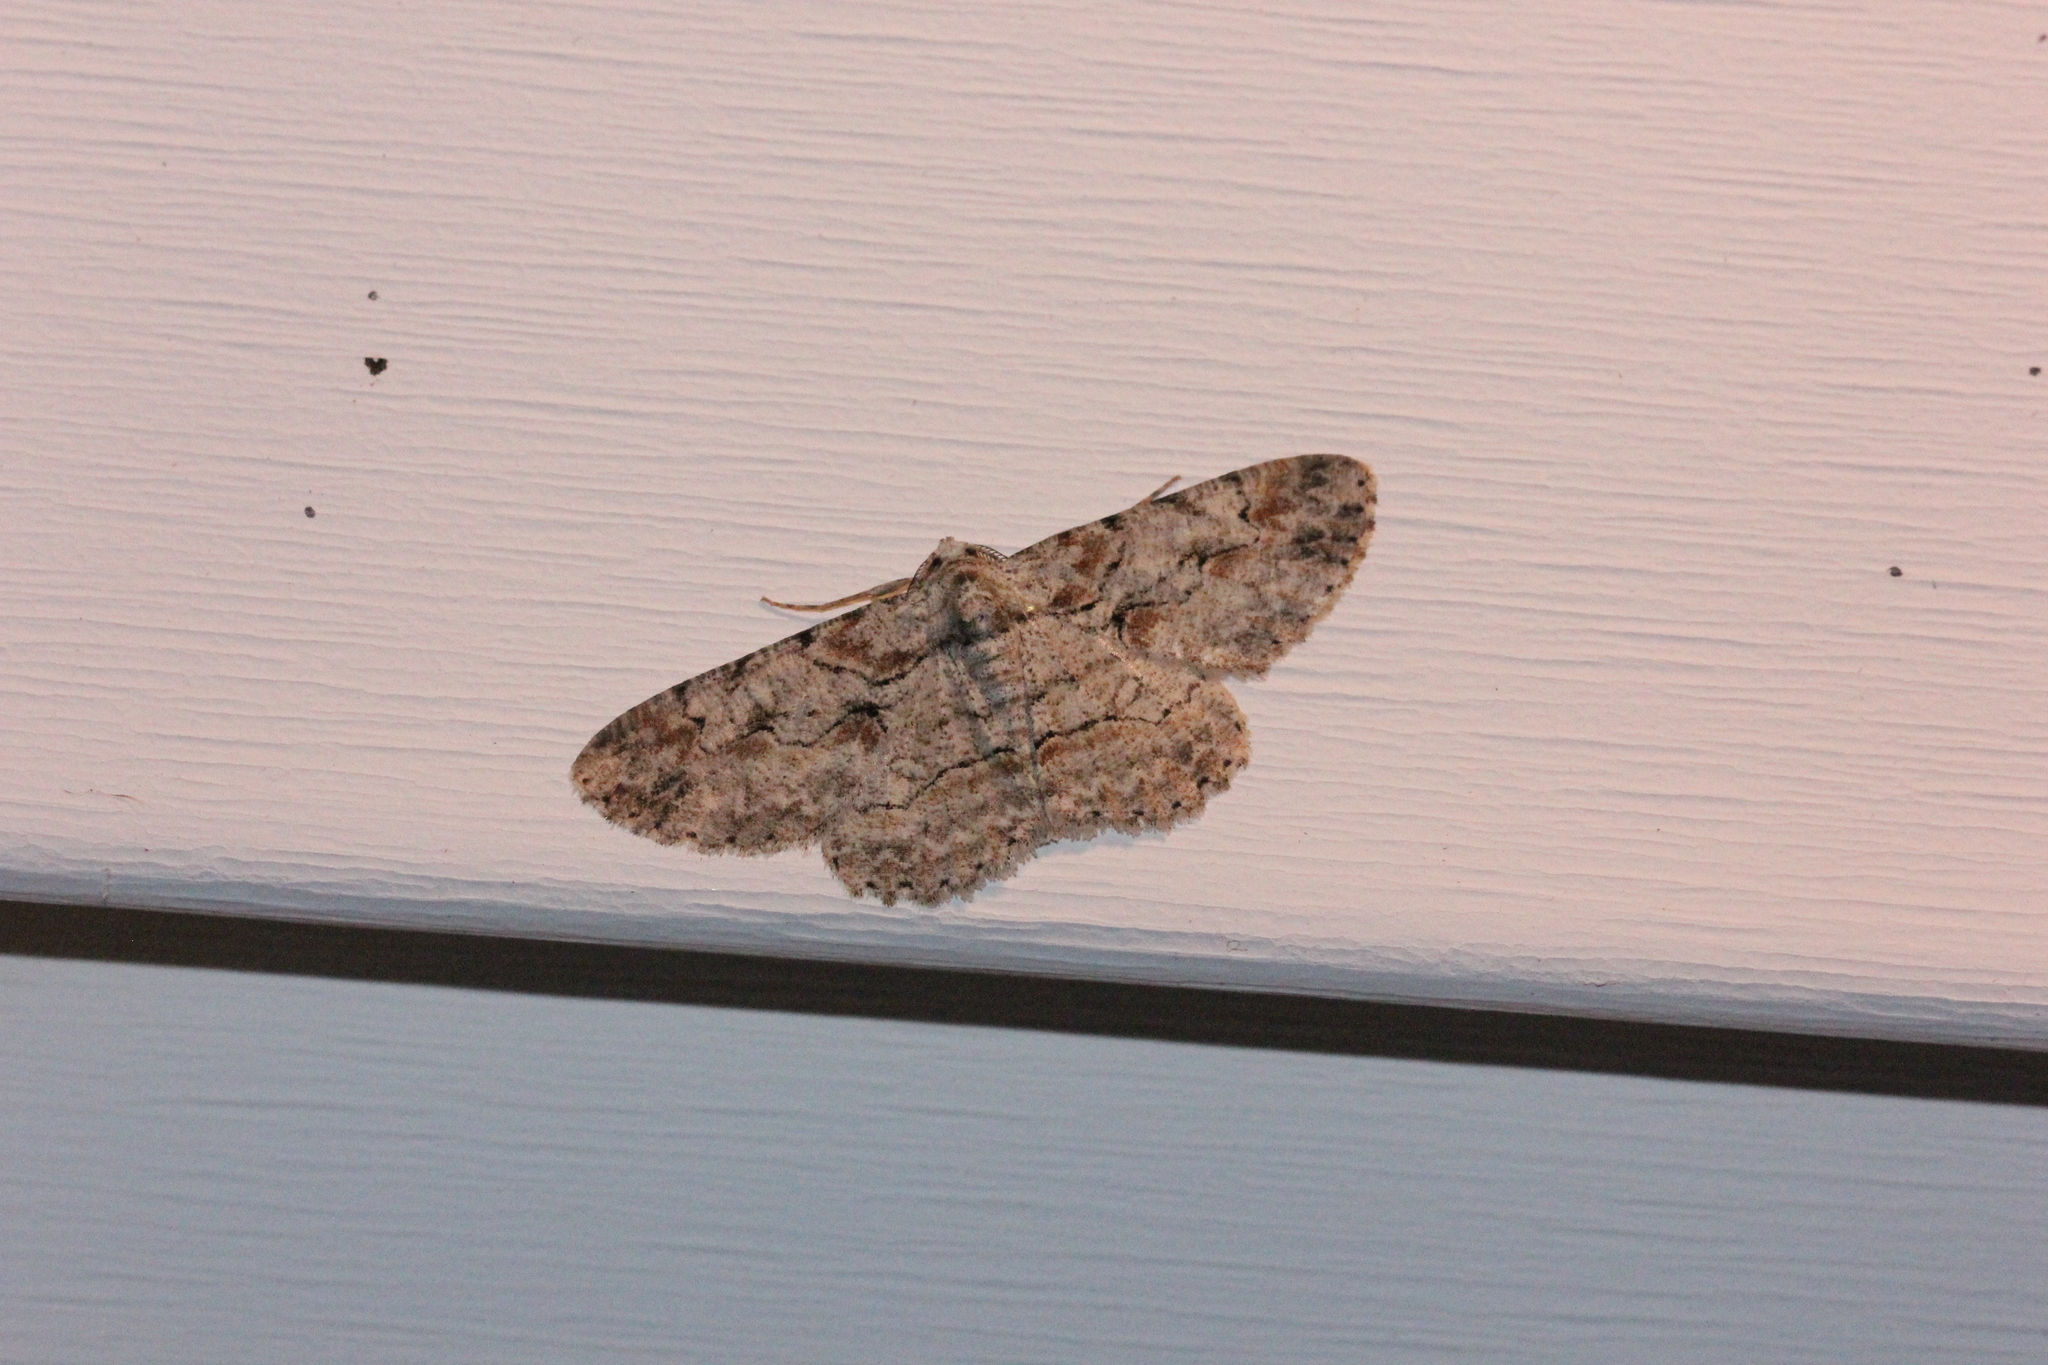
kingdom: Animalia
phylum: Arthropoda
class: Insecta
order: Lepidoptera
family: Geometridae
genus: Iridopsis
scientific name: Iridopsis defectaria
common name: Brown-shaded gray
